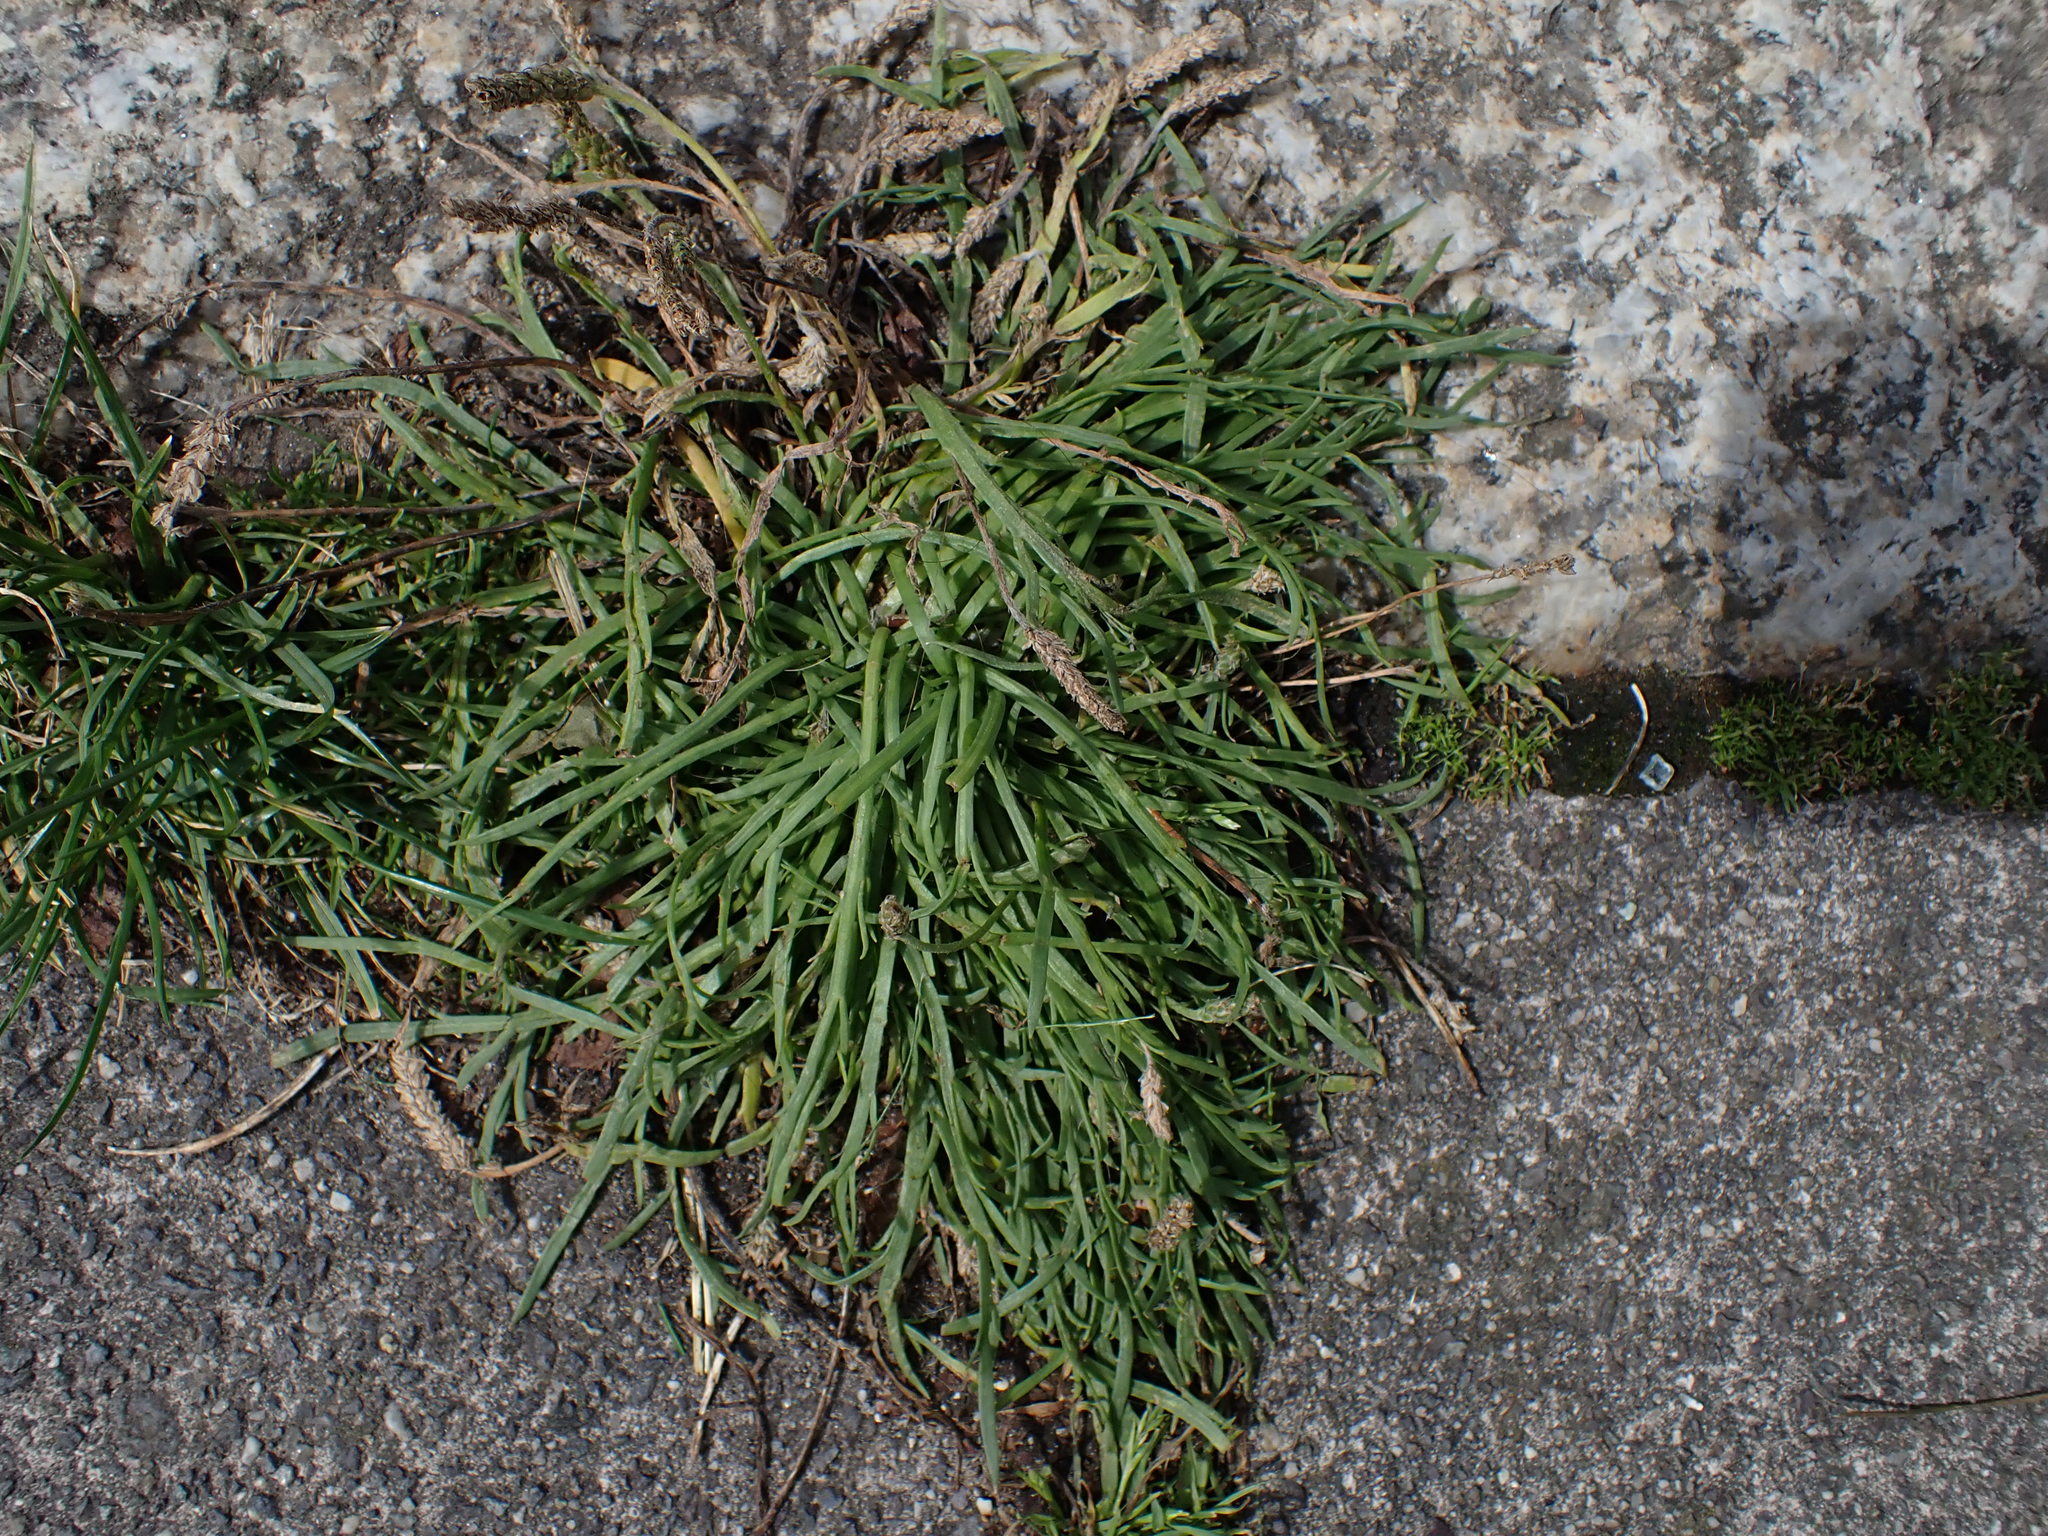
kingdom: Plantae
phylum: Tracheophyta
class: Magnoliopsida
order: Lamiales
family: Plantaginaceae
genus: Plantago
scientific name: Plantago coronopus
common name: Buck's-horn plantain
